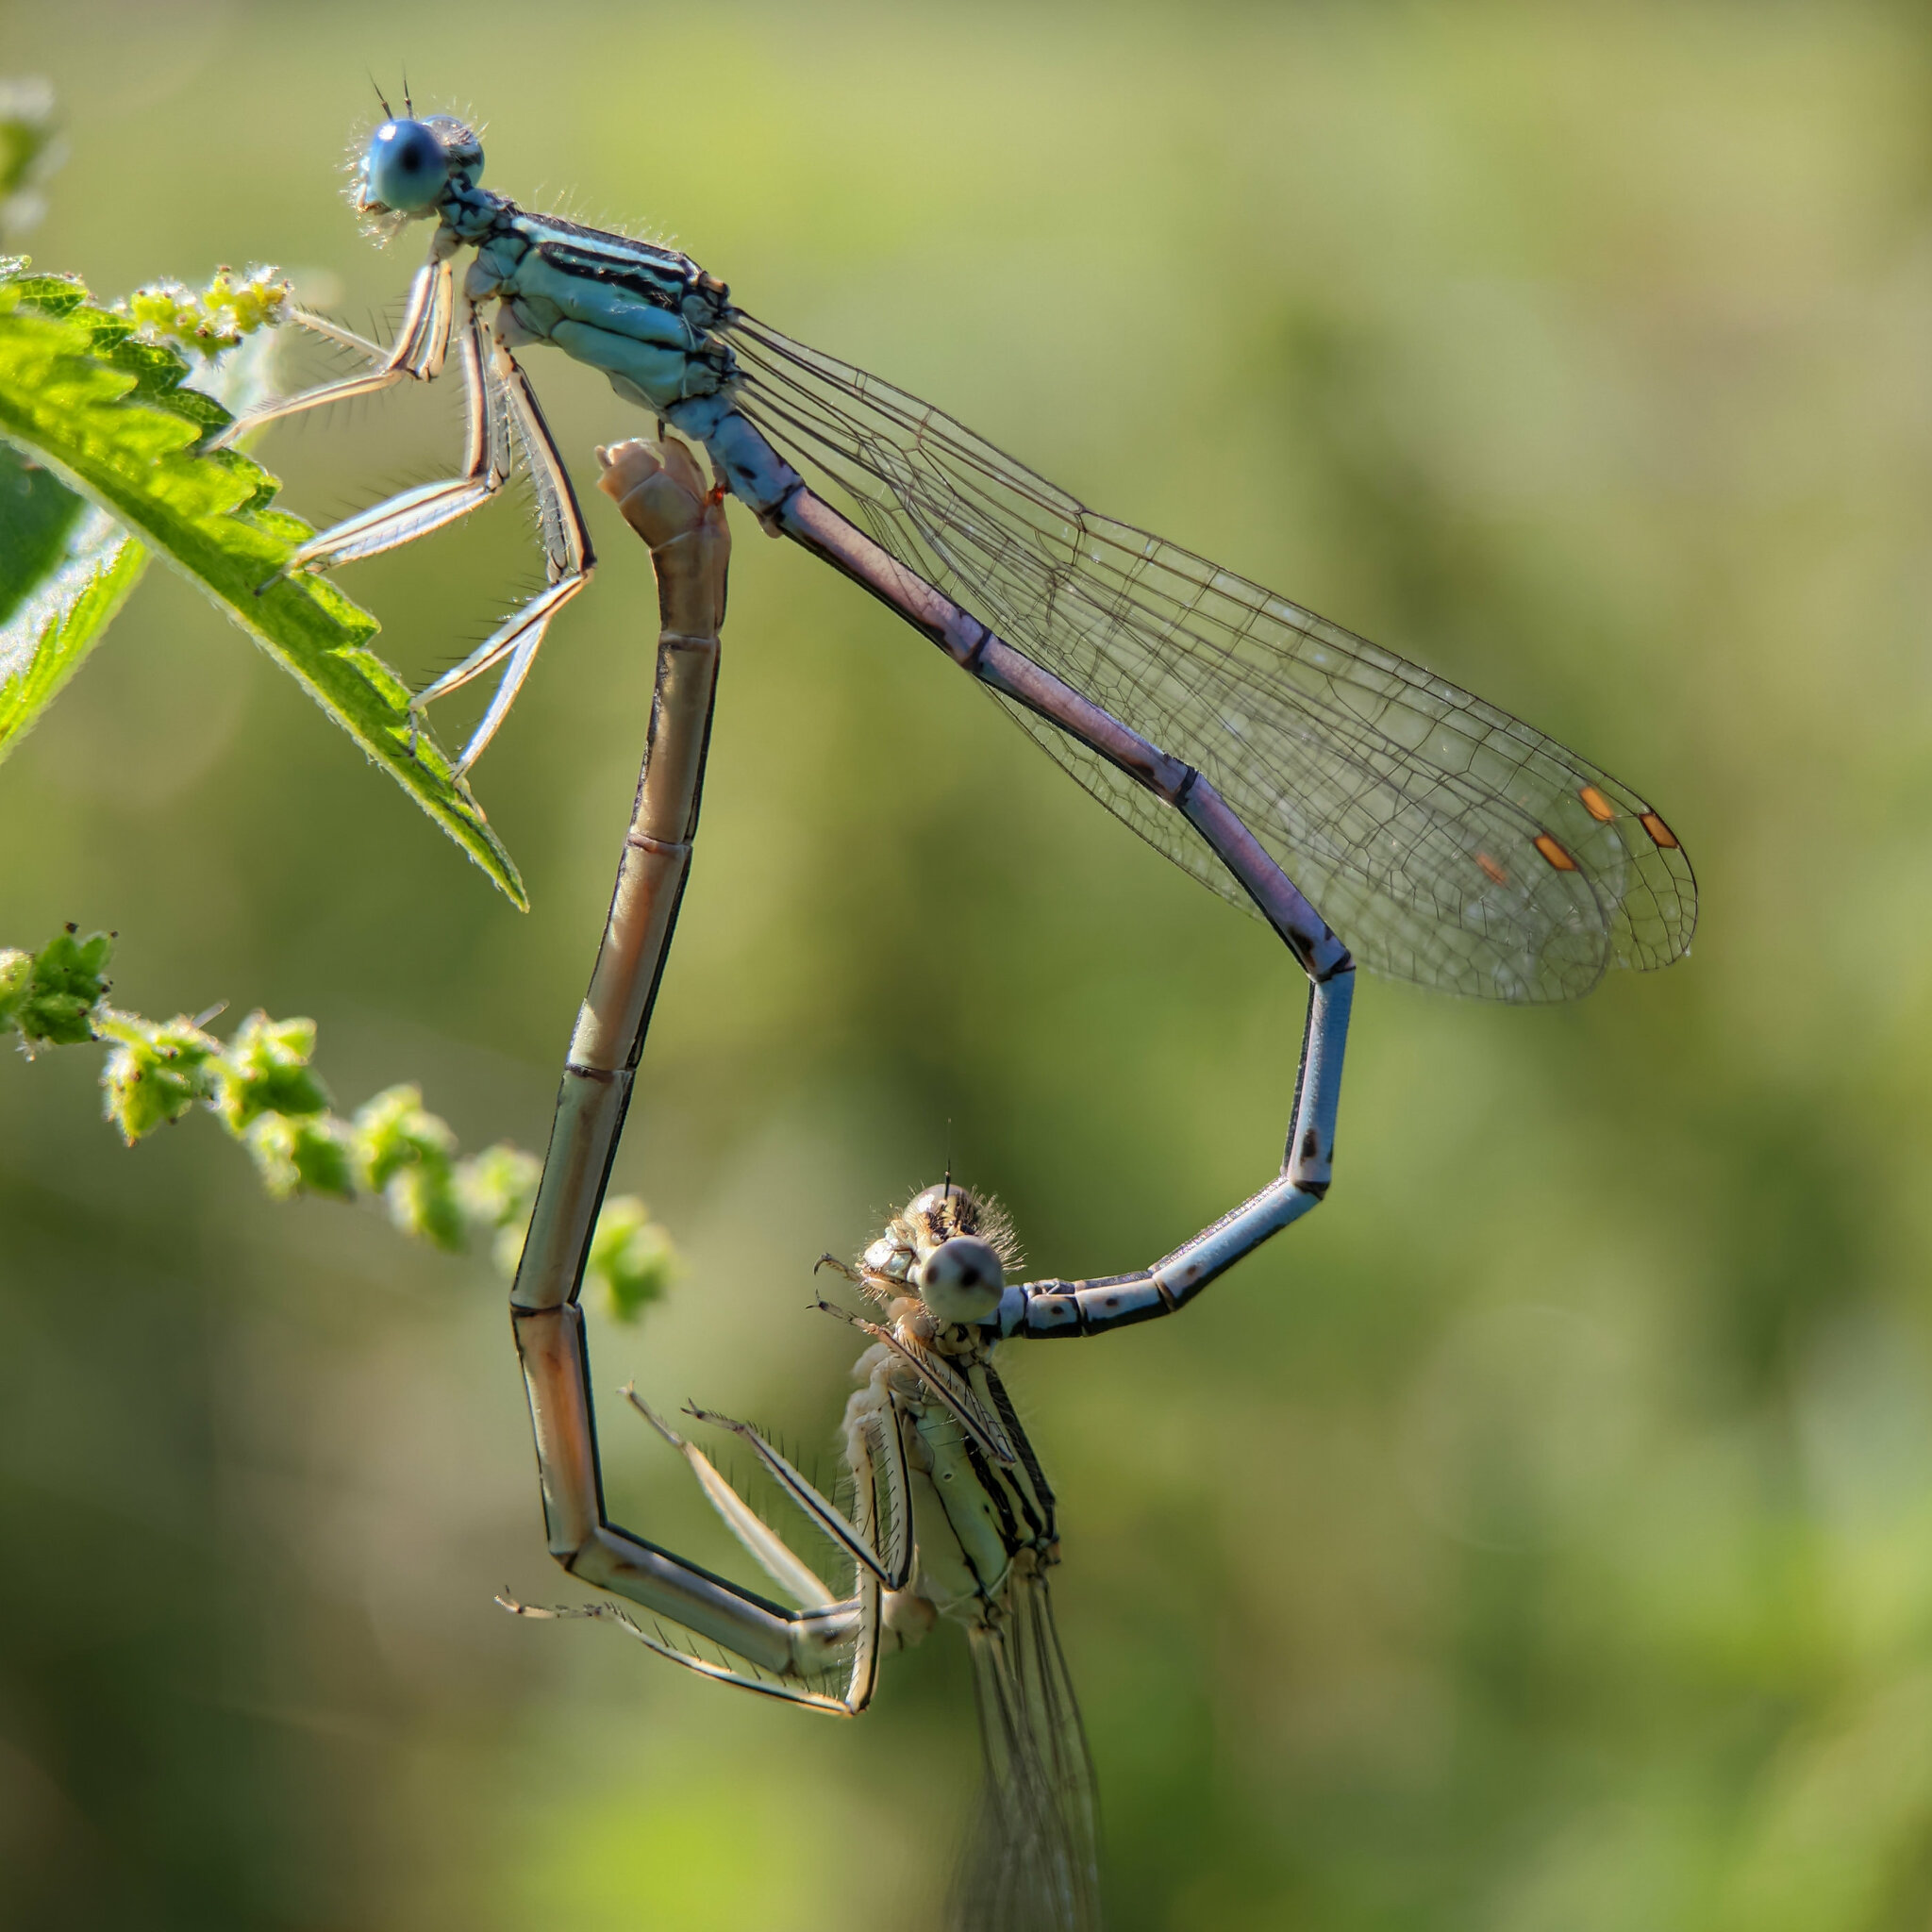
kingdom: Animalia
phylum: Arthropoda
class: Insecta
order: Odonata
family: Platycnemididae
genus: Platycnemis
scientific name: Platycnemis pennipes
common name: White-legged damselfly
